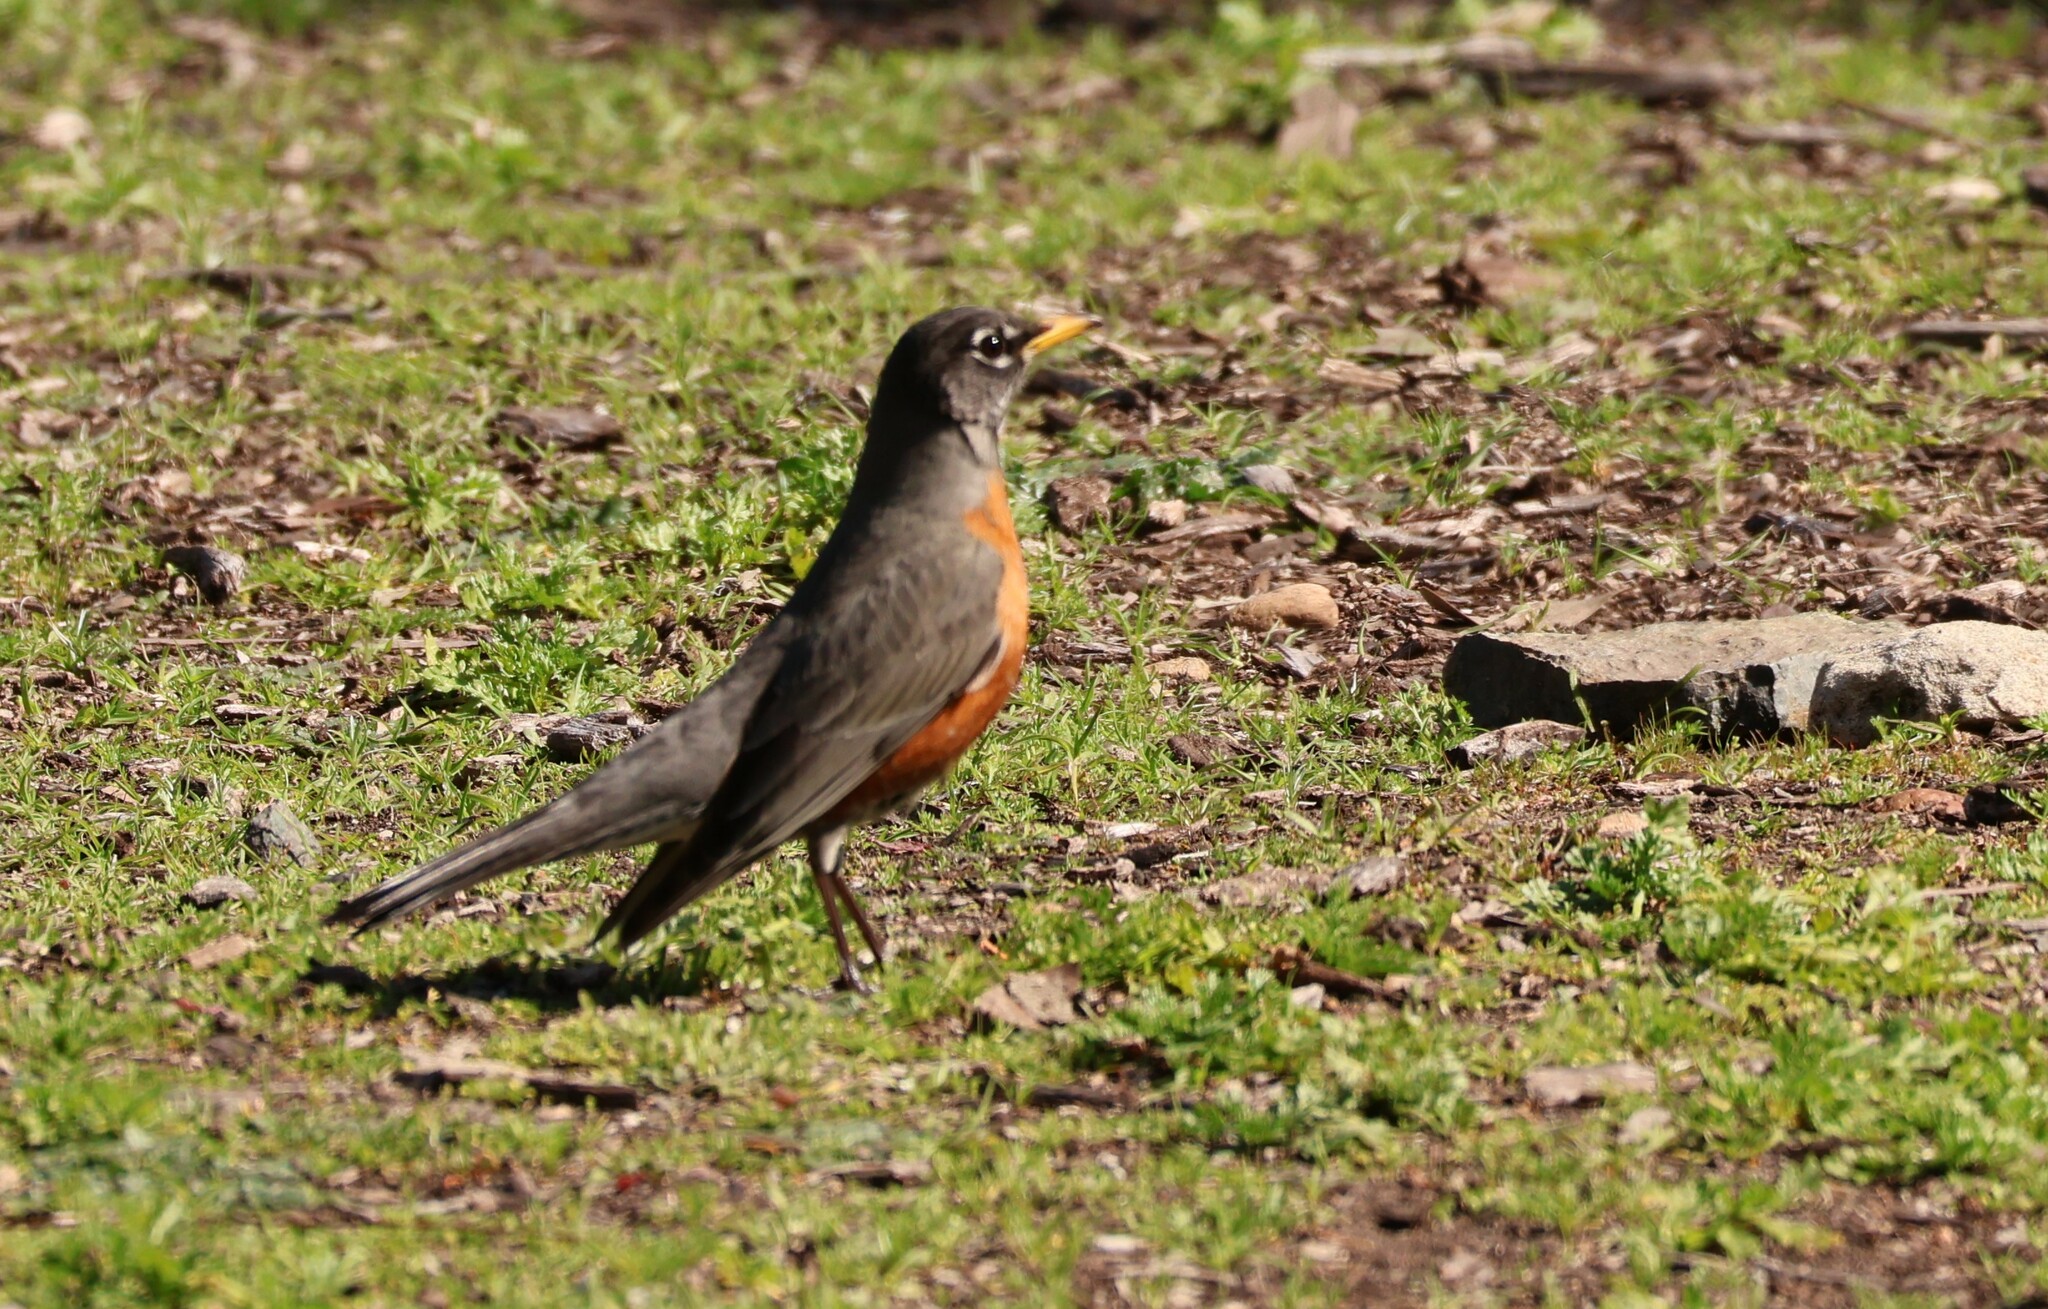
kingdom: Animalia
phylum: Chordata
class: Aves
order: Passeriformes
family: Turdidae
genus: Turdus
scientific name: Turdus migratorius
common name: American robin
